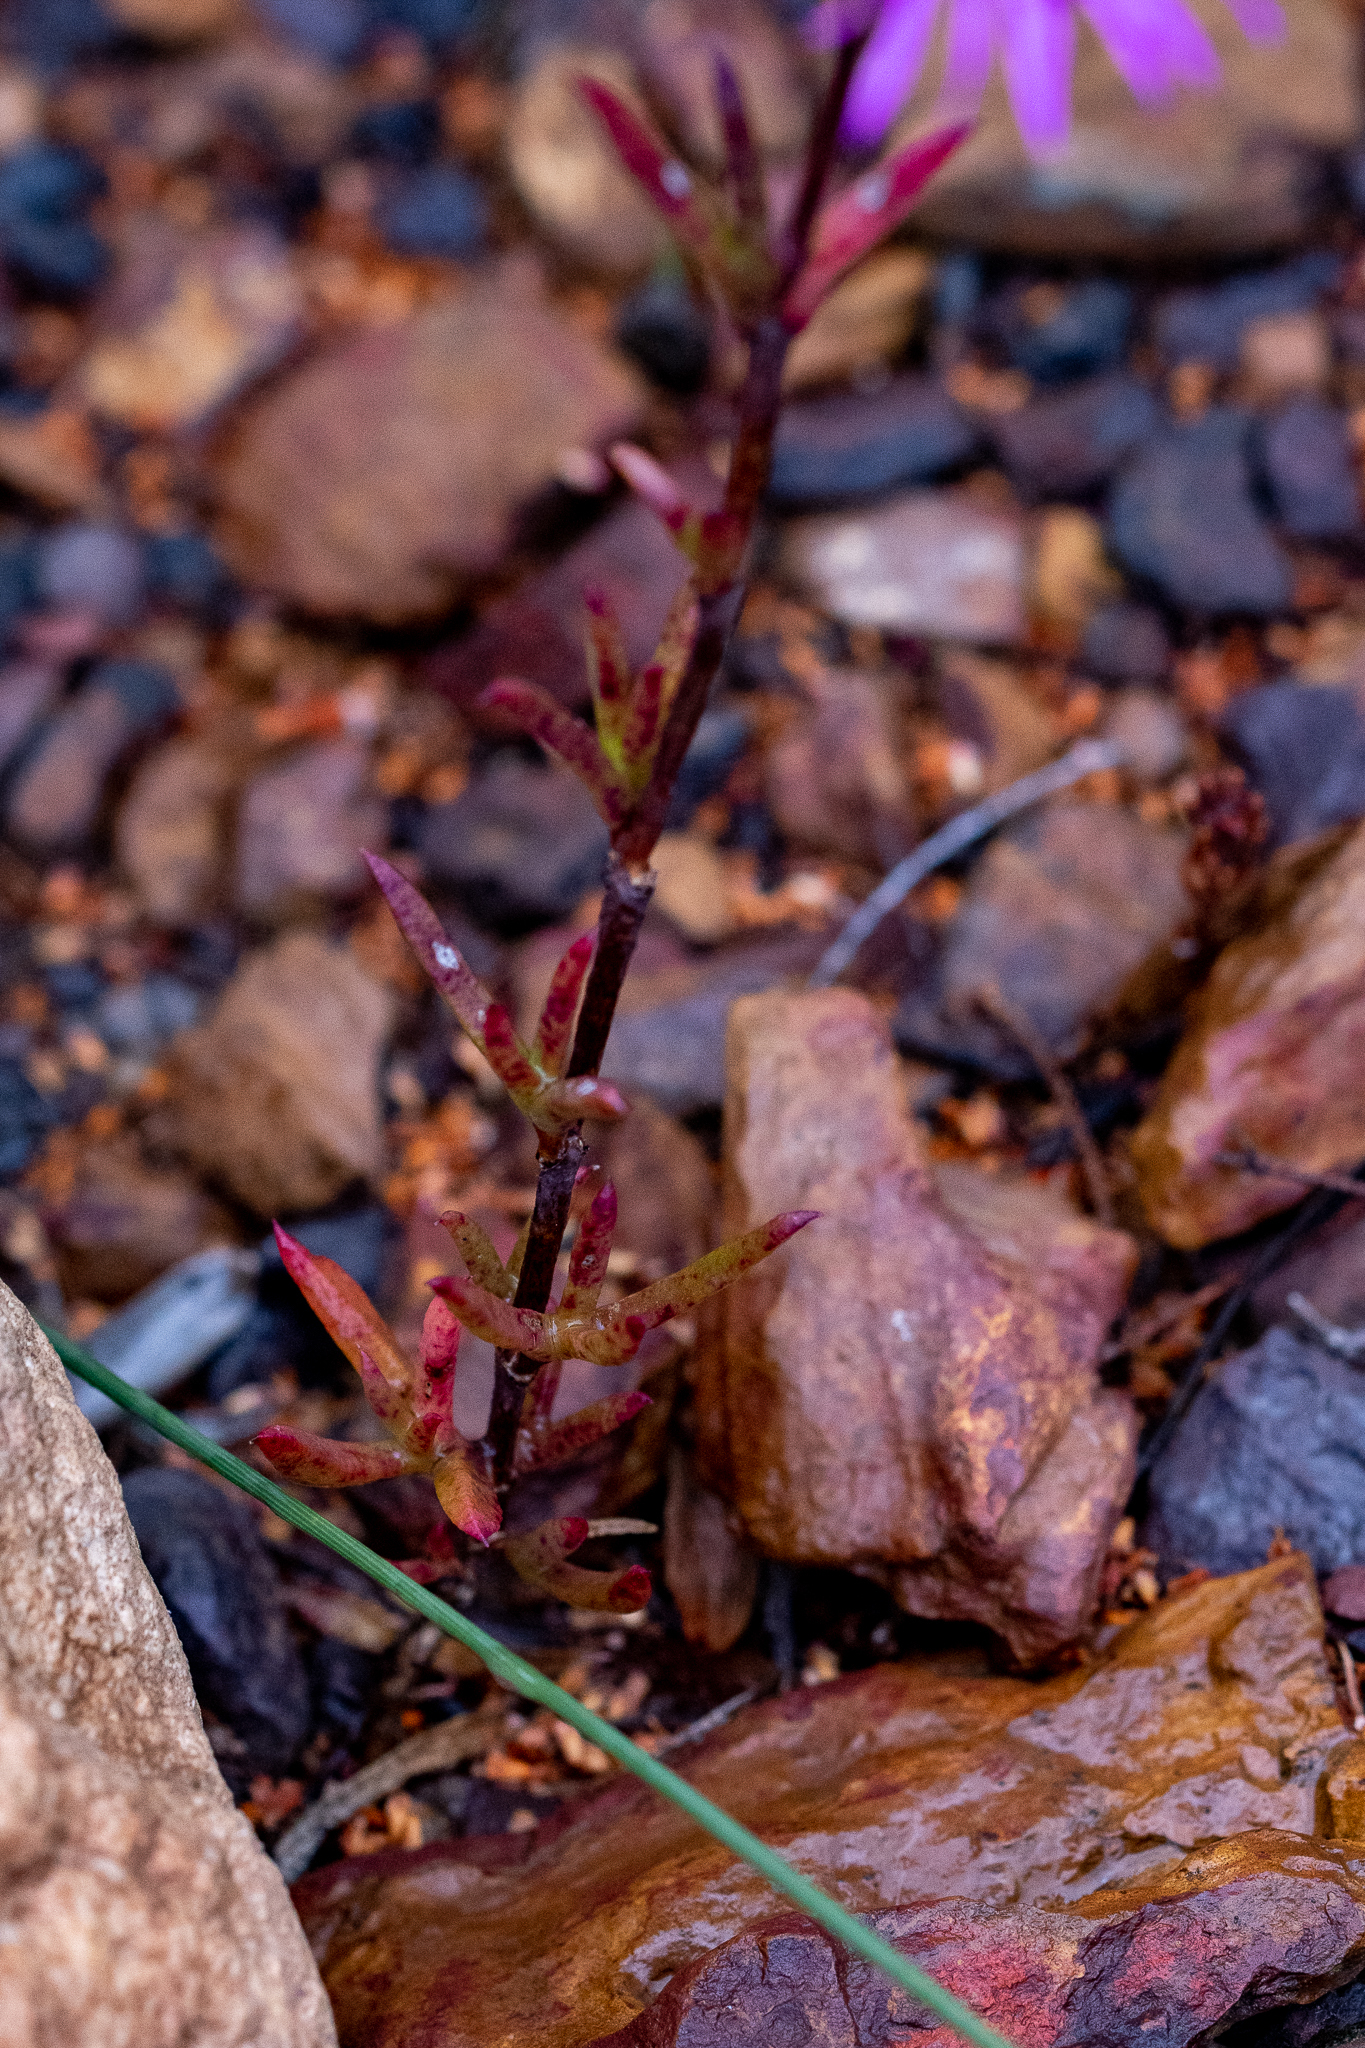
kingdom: Plantae
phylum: Tracheophyta
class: Magnoliopsida
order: Caryophyllales
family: Aizoaceae
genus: Erepsia
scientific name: Erepsia anceps
